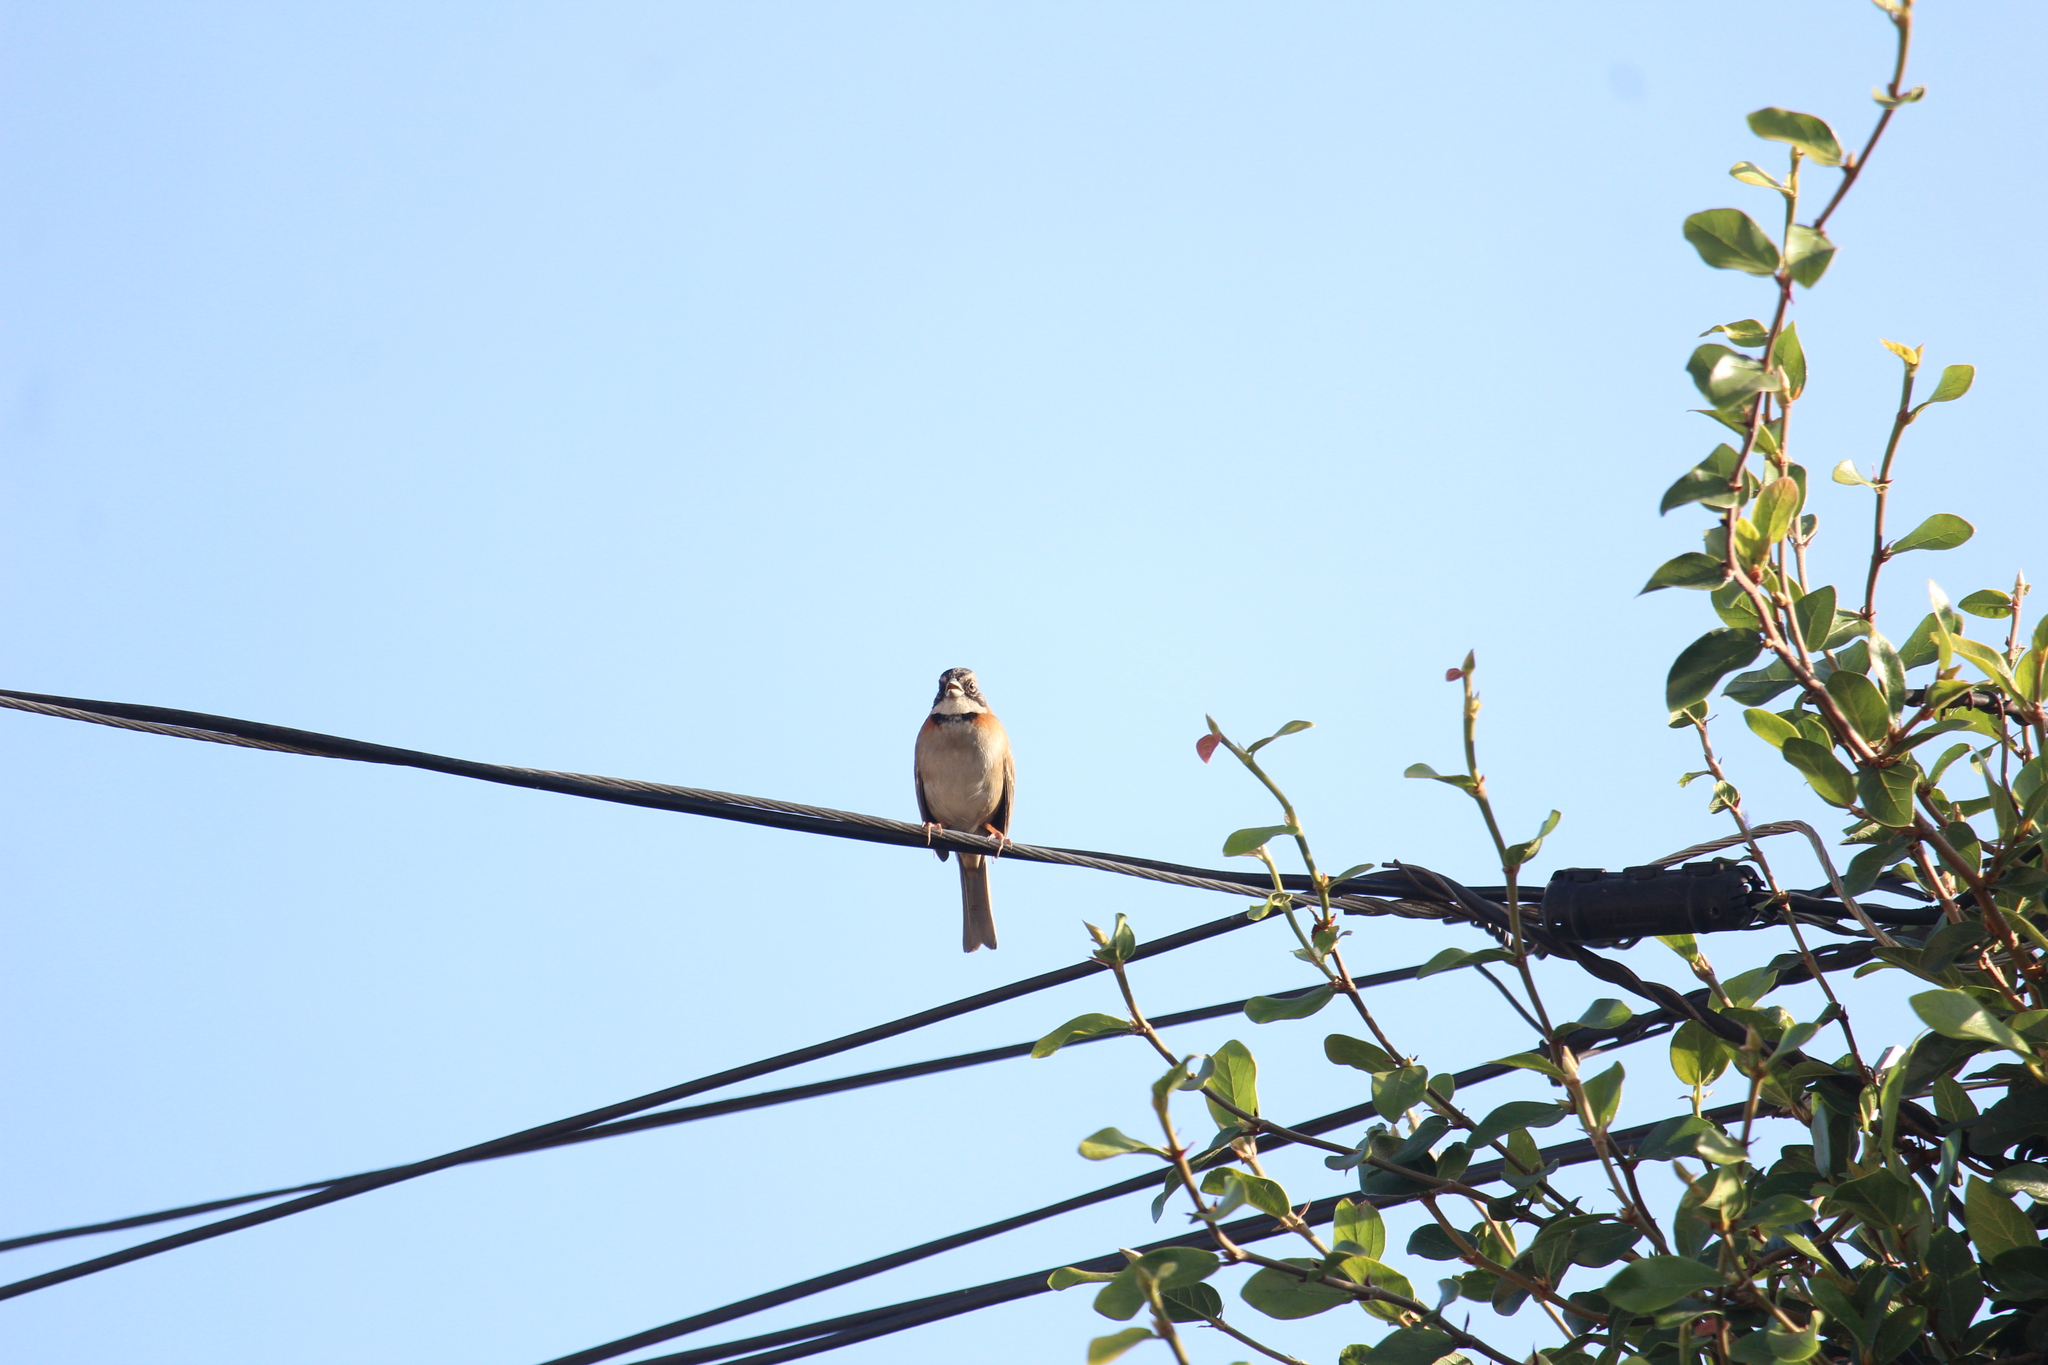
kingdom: Animalia
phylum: Chordata
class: Aves
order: Passeriformes
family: Passerellidae
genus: Zonotrichia
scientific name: Zonotrichia capensis
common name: Rufous-collared sparrow
